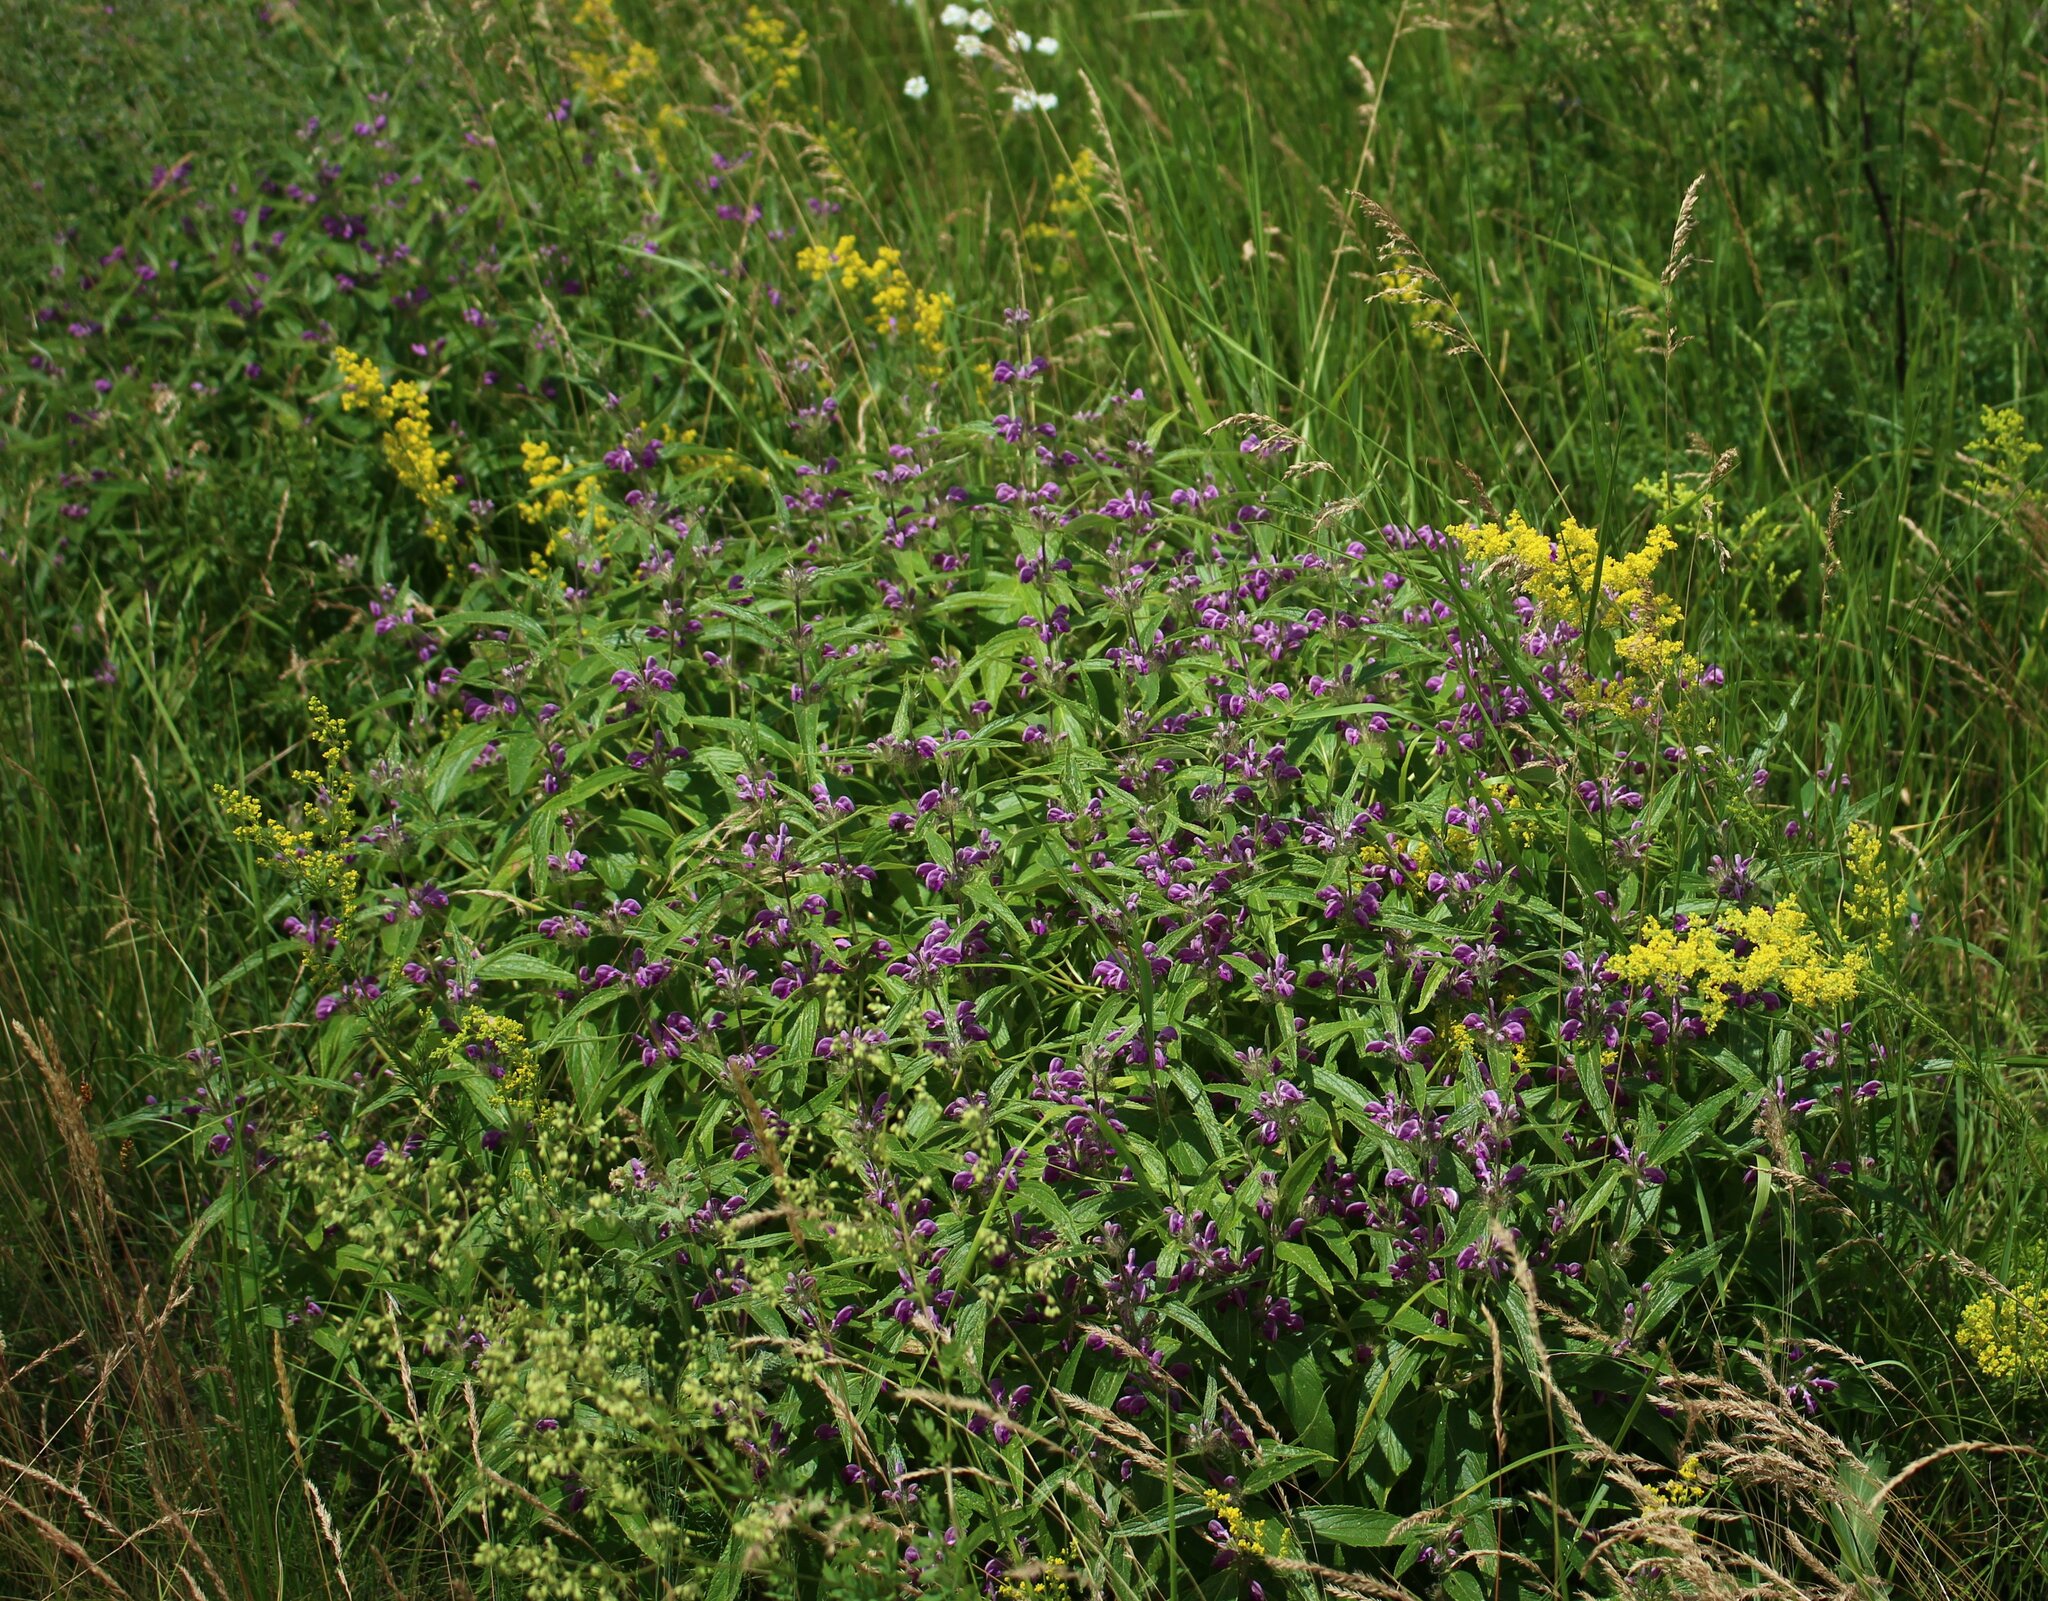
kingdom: Plantae
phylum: Tracheophyta
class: Magnoliopsida
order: Lamiales
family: Lamiaceae
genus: Phlomis
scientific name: Phlomis herba-venti
